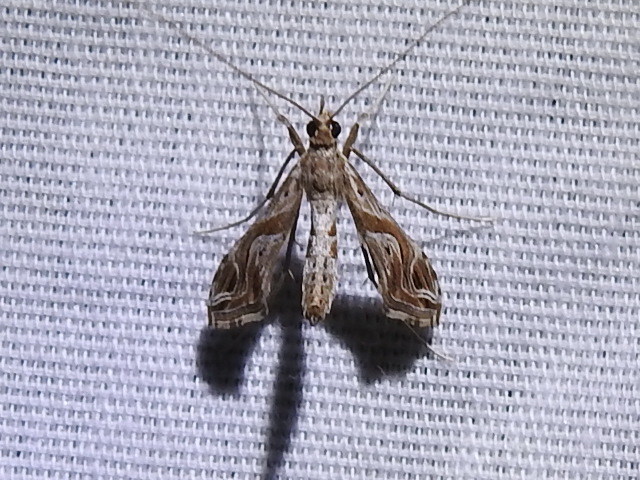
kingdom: Animalia
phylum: Arthropoda
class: Insecta
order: Lepidoptera
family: Crambidae
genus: Lineodes
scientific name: Lineodes integra
